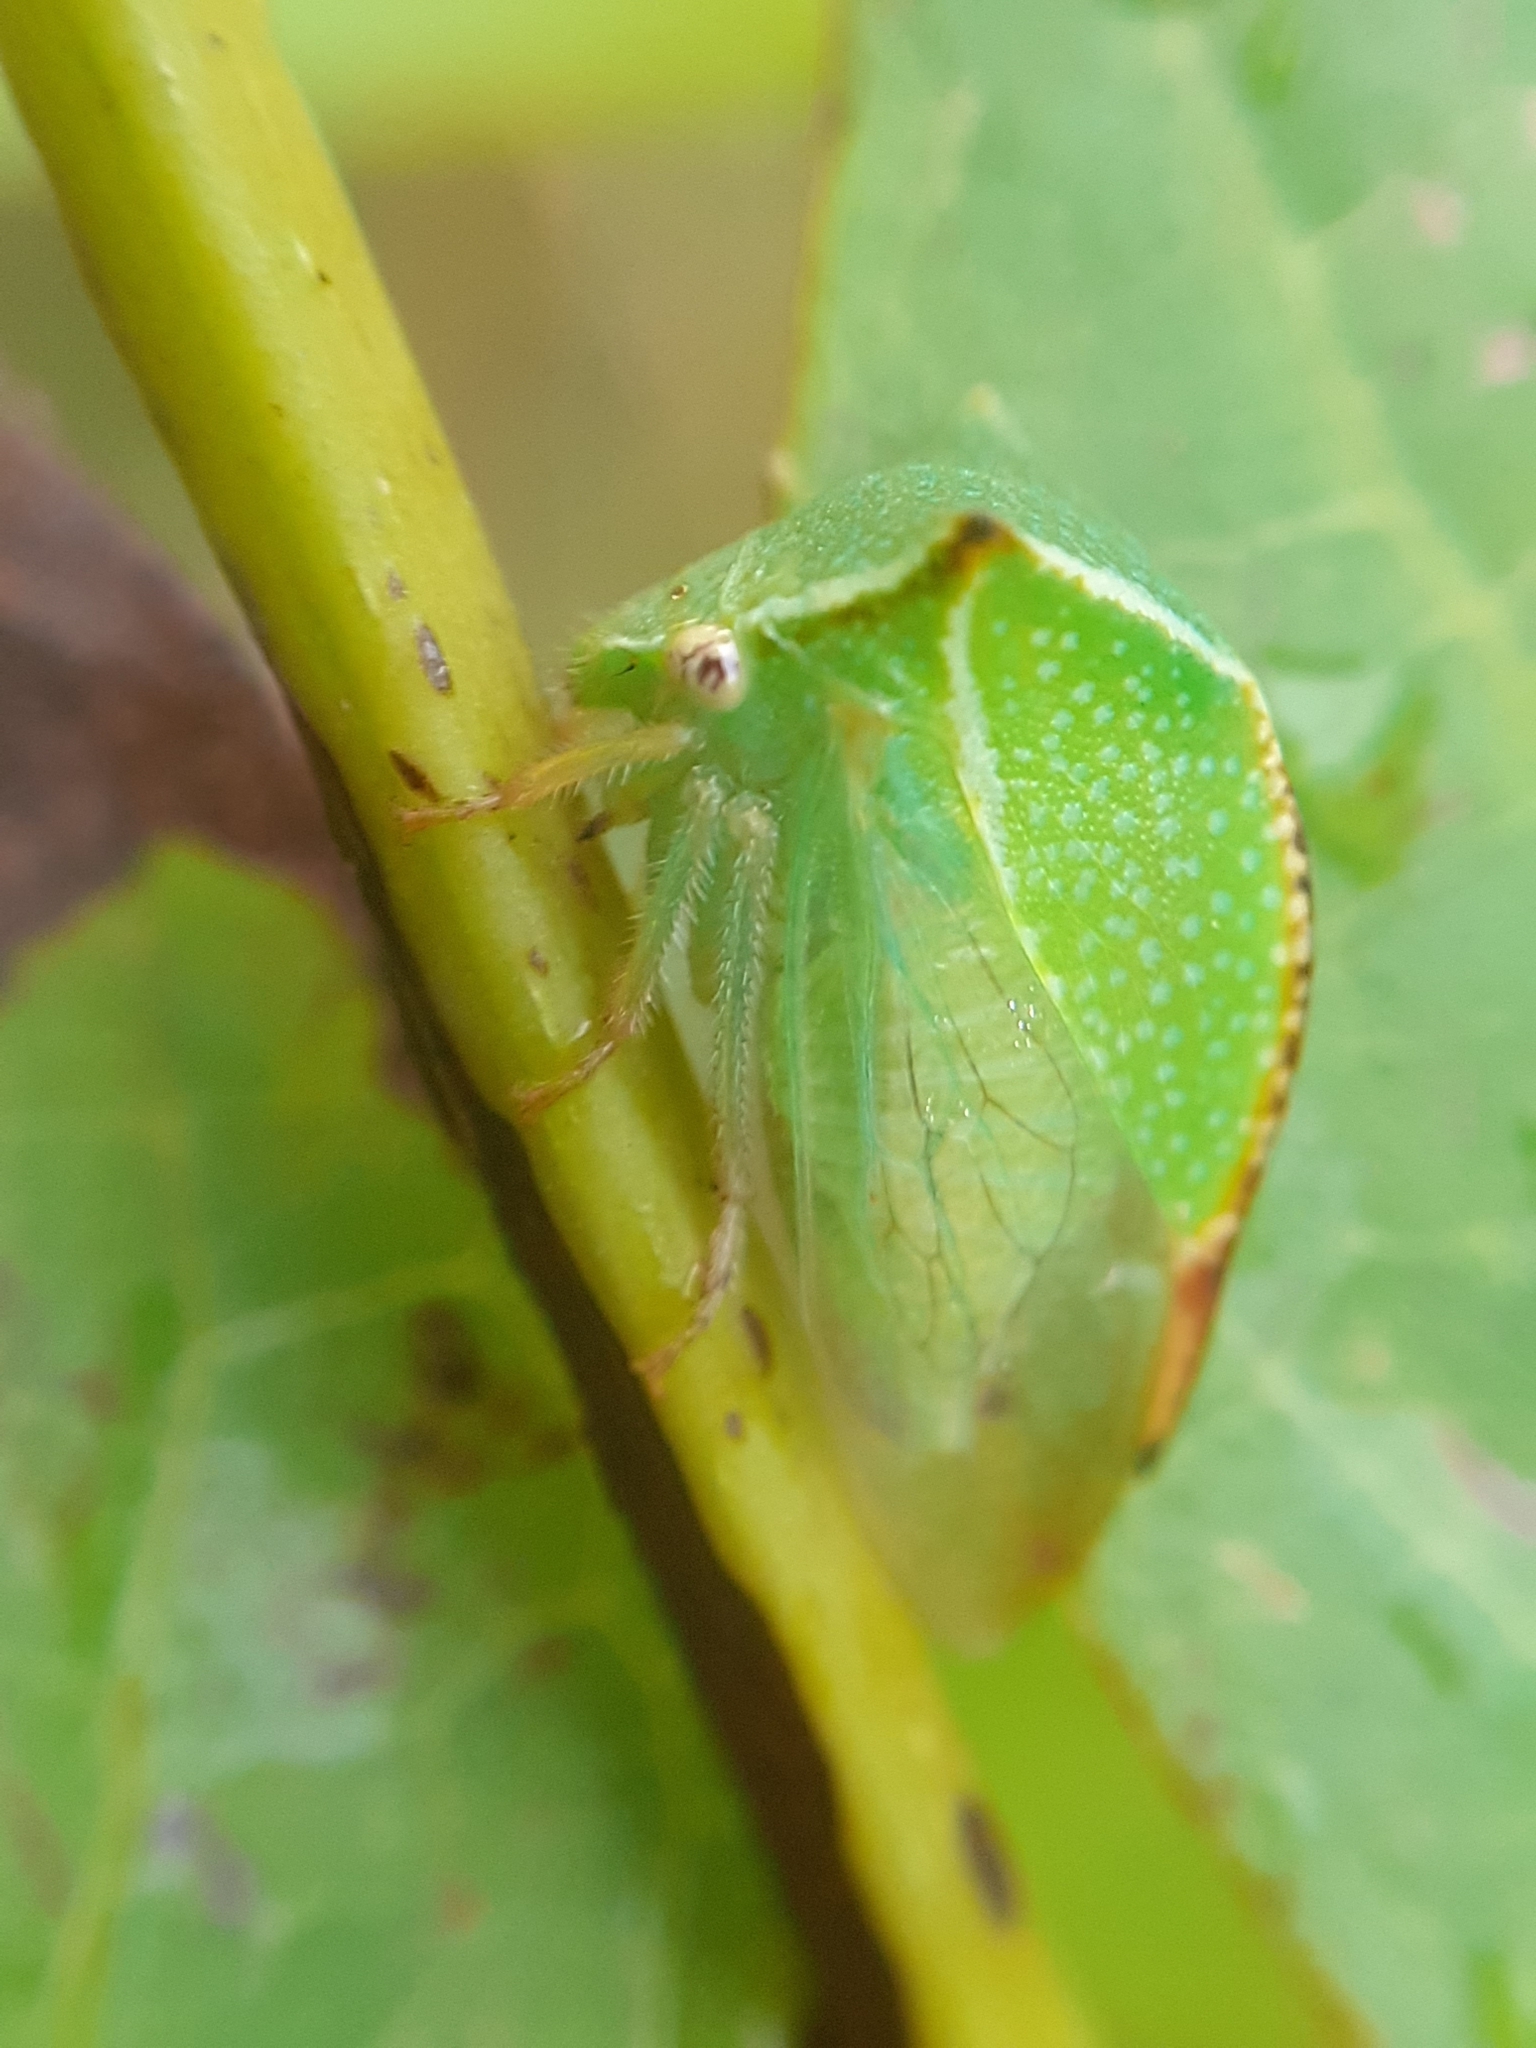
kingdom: Animalia
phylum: Arthropoda
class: Insecta
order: Hemiptera
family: Membracidae
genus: Stictocephala
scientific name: Stictocephala bisonia
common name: American buffalo treehopper
